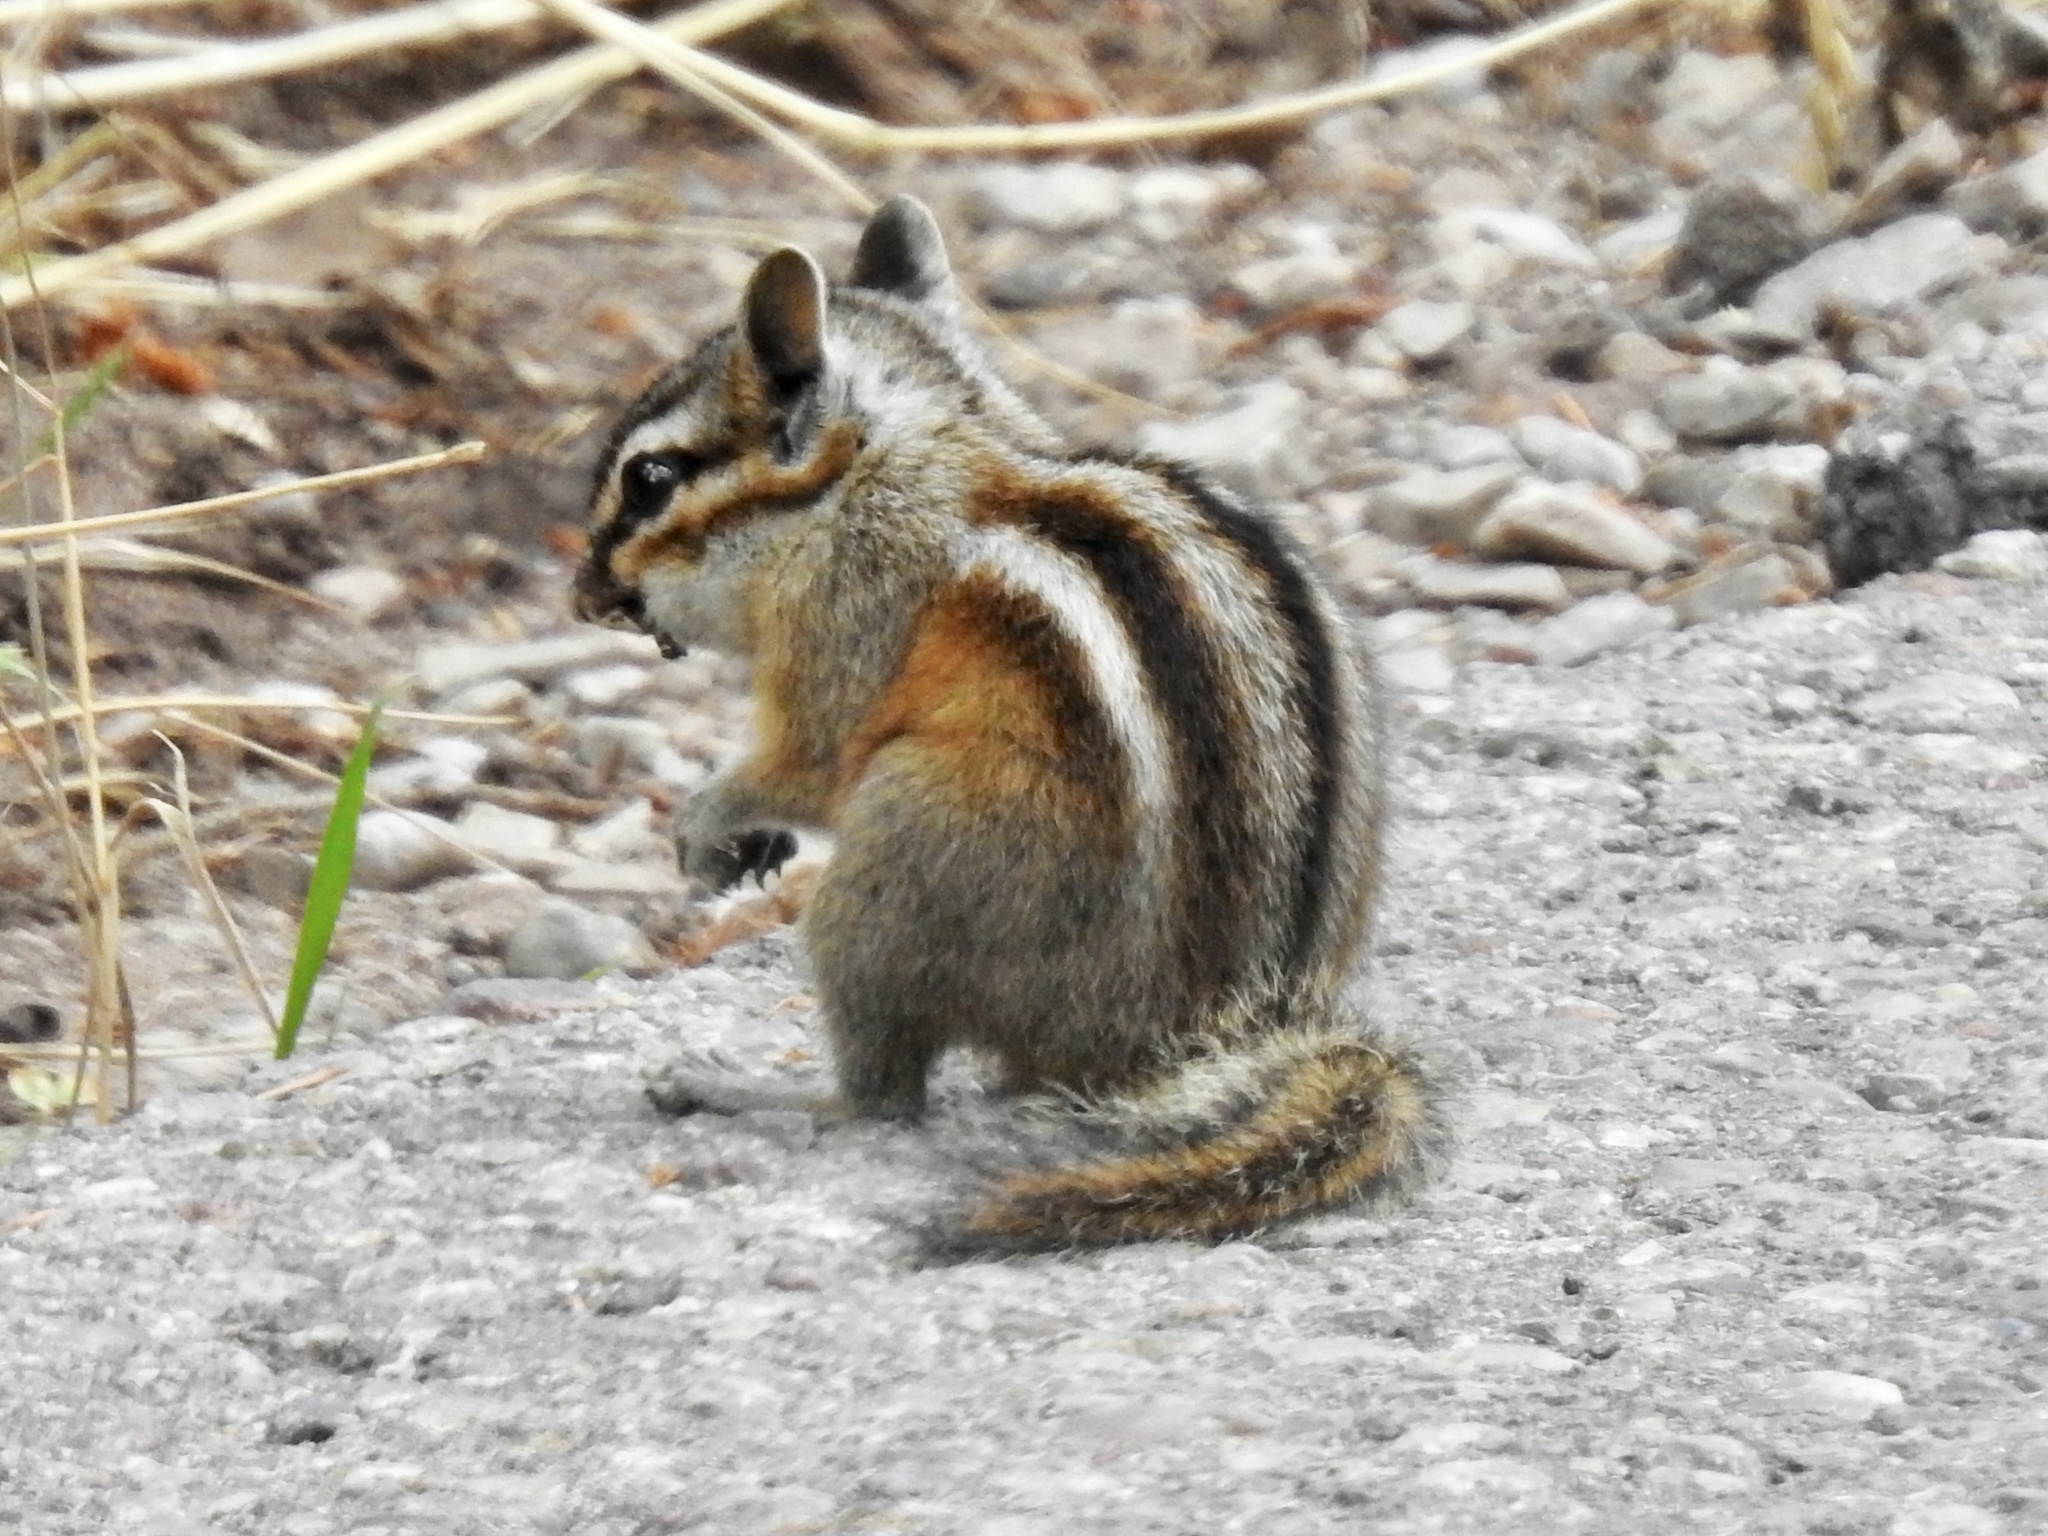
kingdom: Animalia
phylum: Chordata
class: Mammalia
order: Rodentia
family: Sciuridae
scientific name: Sciuridae
